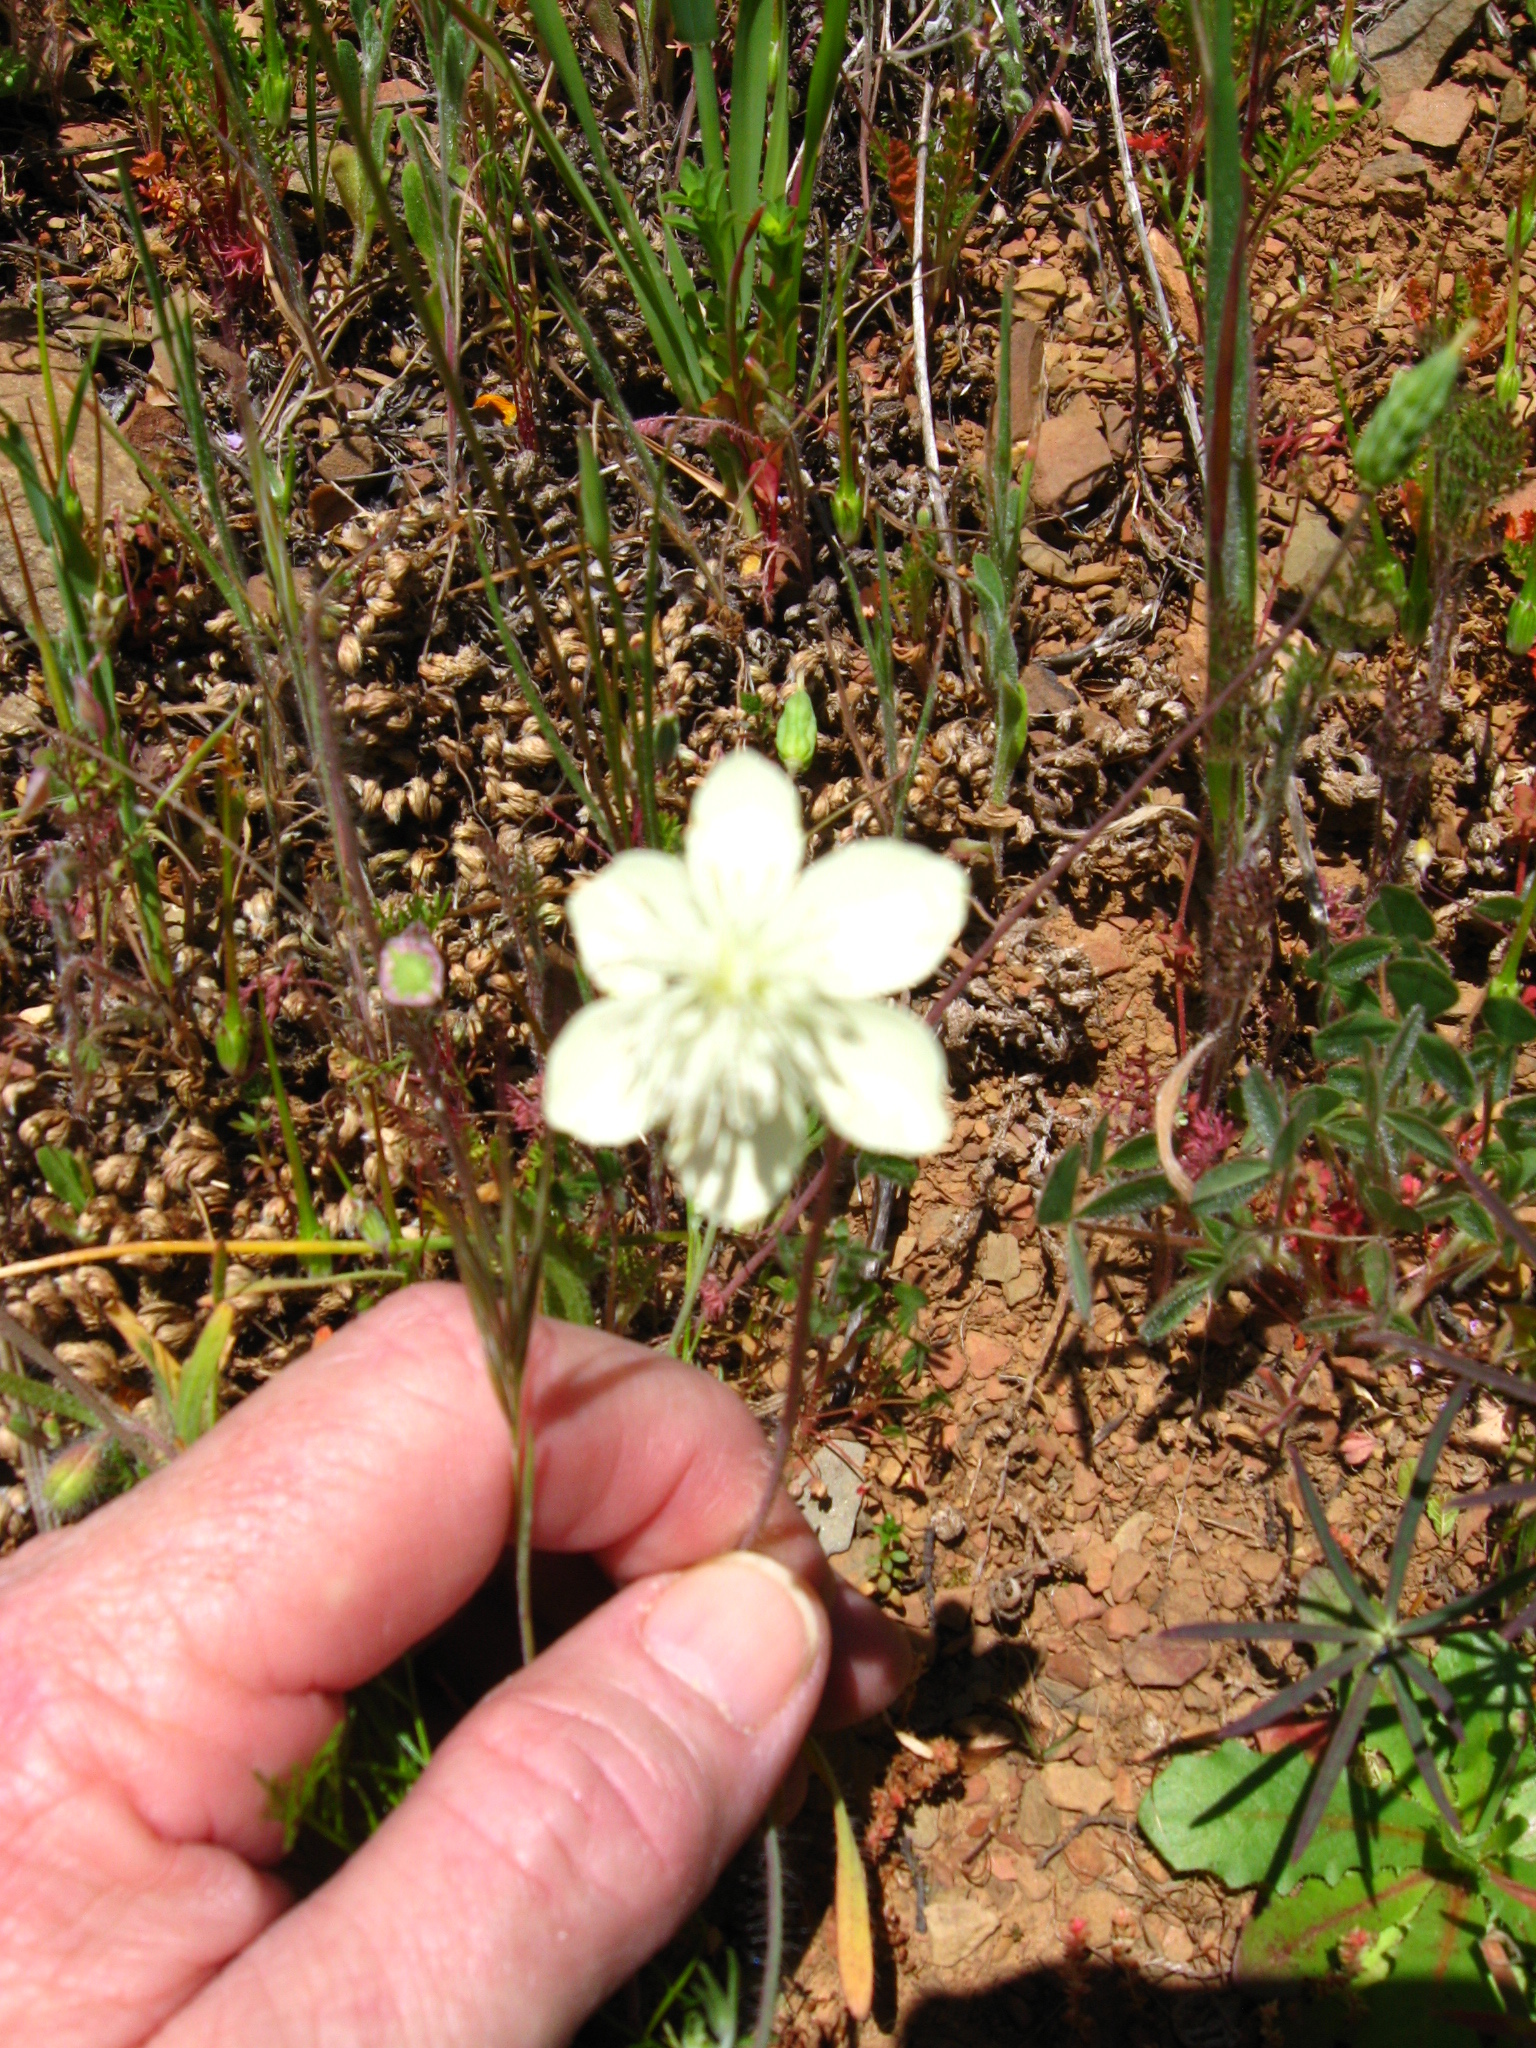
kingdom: Plantae
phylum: Tracheophyta
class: Magnoliopsida
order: Ranunculales
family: Papaveraceae
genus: Platystemon
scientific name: Platystemon californicus
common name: Cream-cups
